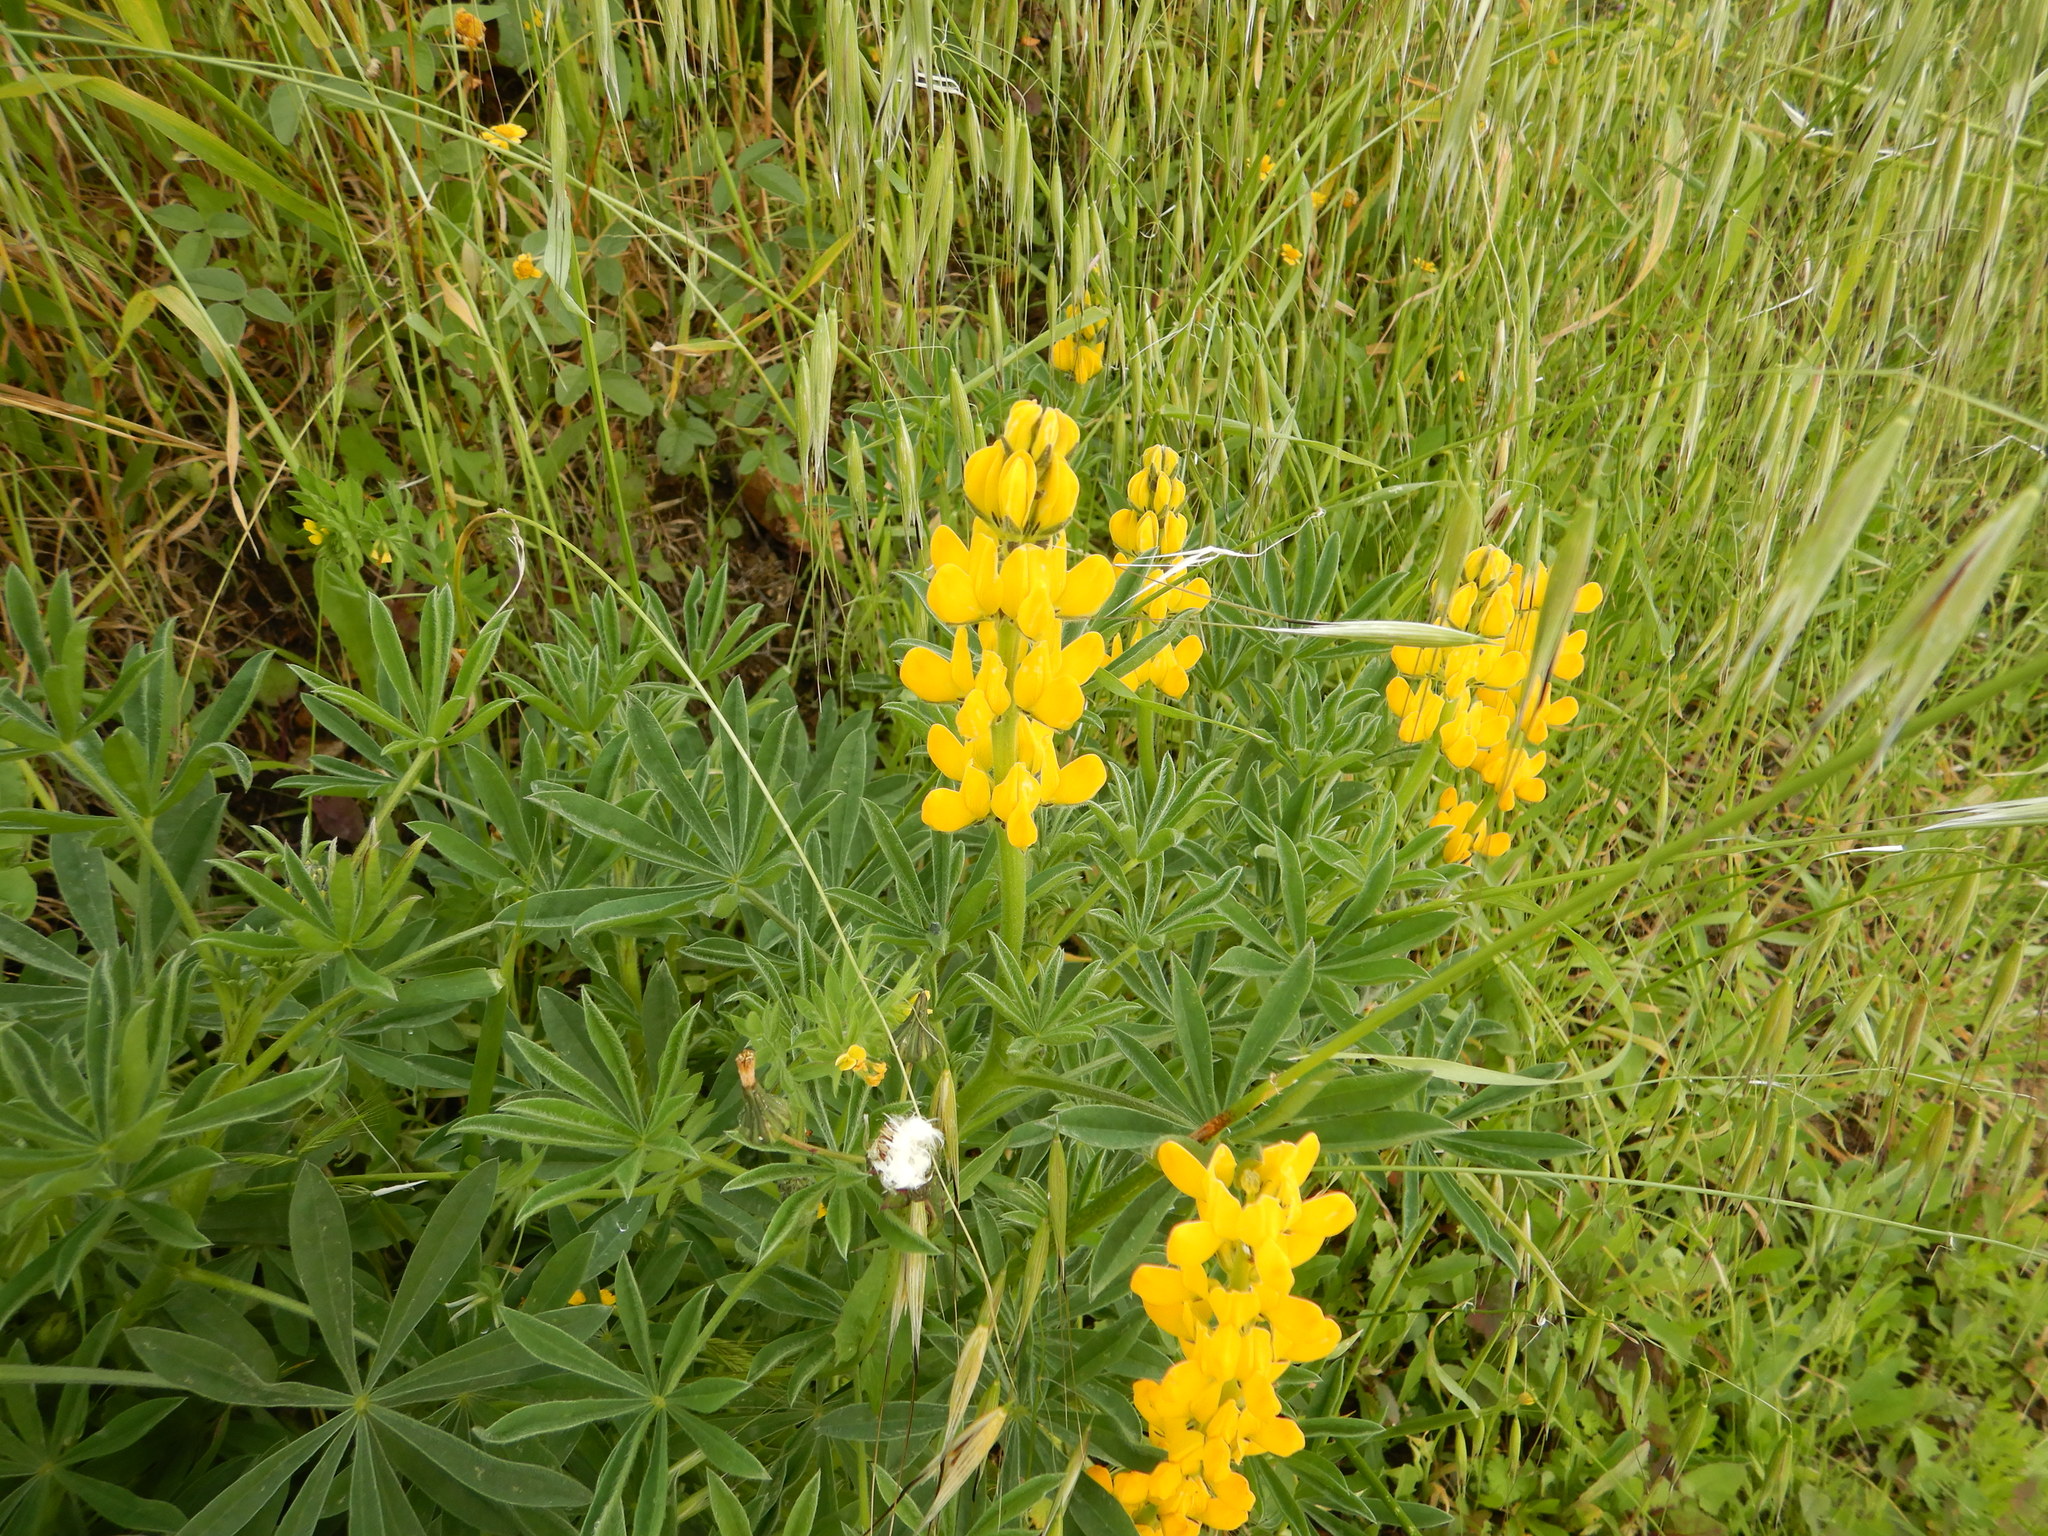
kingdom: Plantae
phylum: Tracheophyta
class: Magnoliopsida
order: Fabales
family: Fabaceae
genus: Lupinus
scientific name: Lupinus luteus
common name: European yellow lupine
